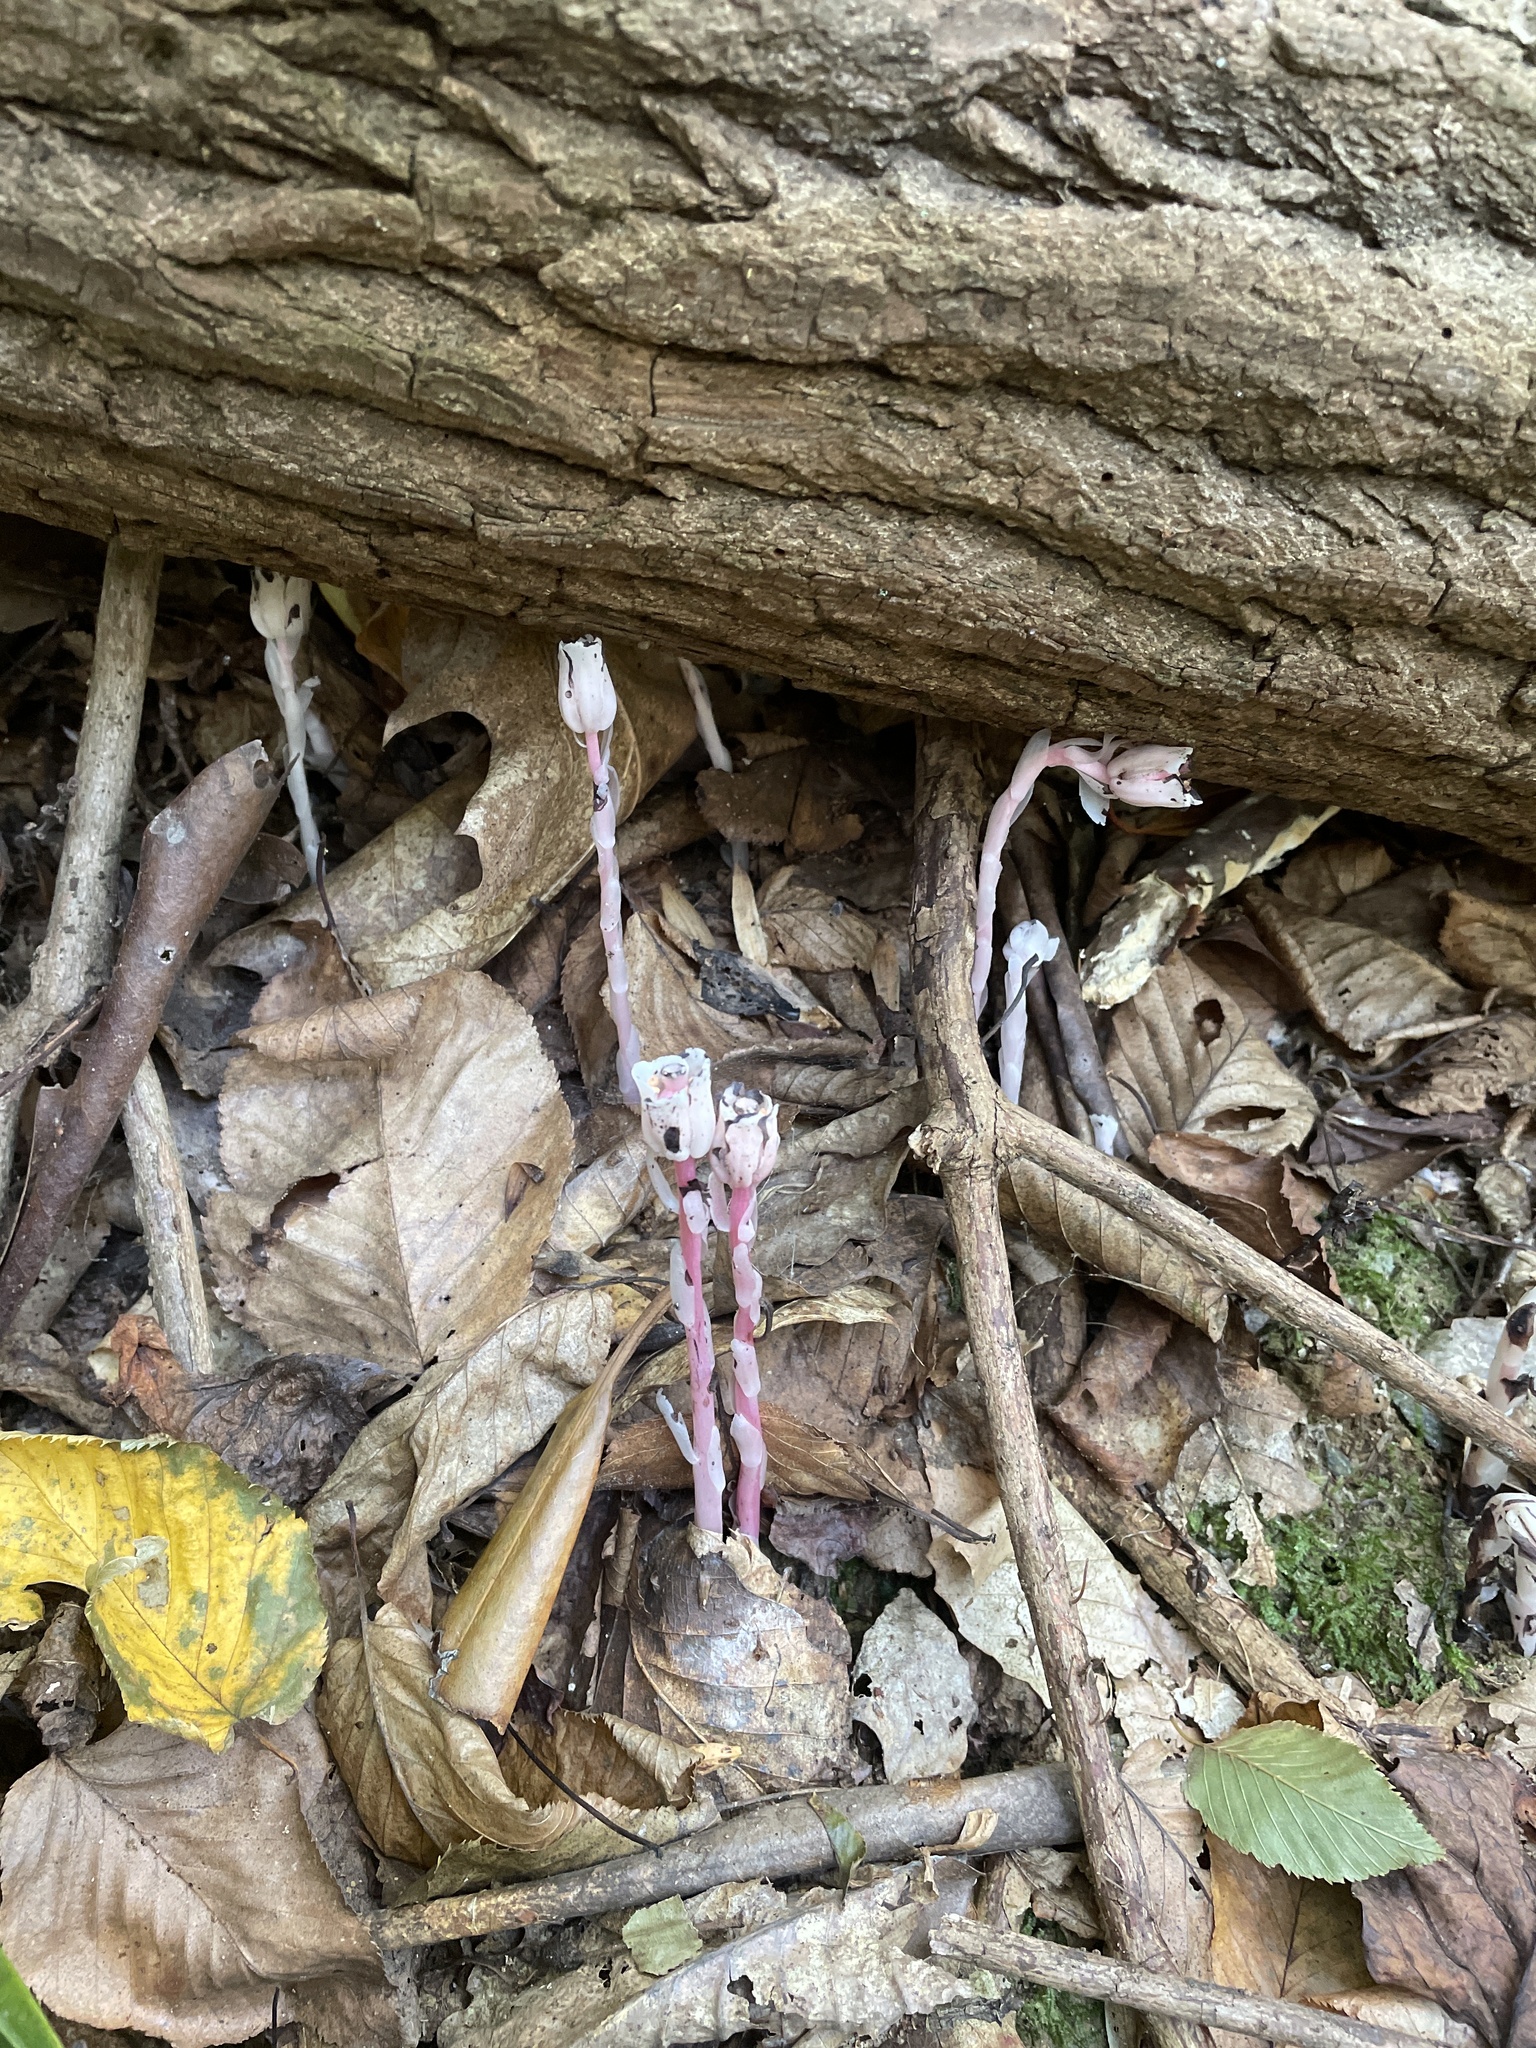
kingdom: Plantae
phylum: Tracheophyta
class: Magnoliopsida
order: Ericales
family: Ericaceae
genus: Monotropa
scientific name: Monotropa uniflora
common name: Convulsion root
